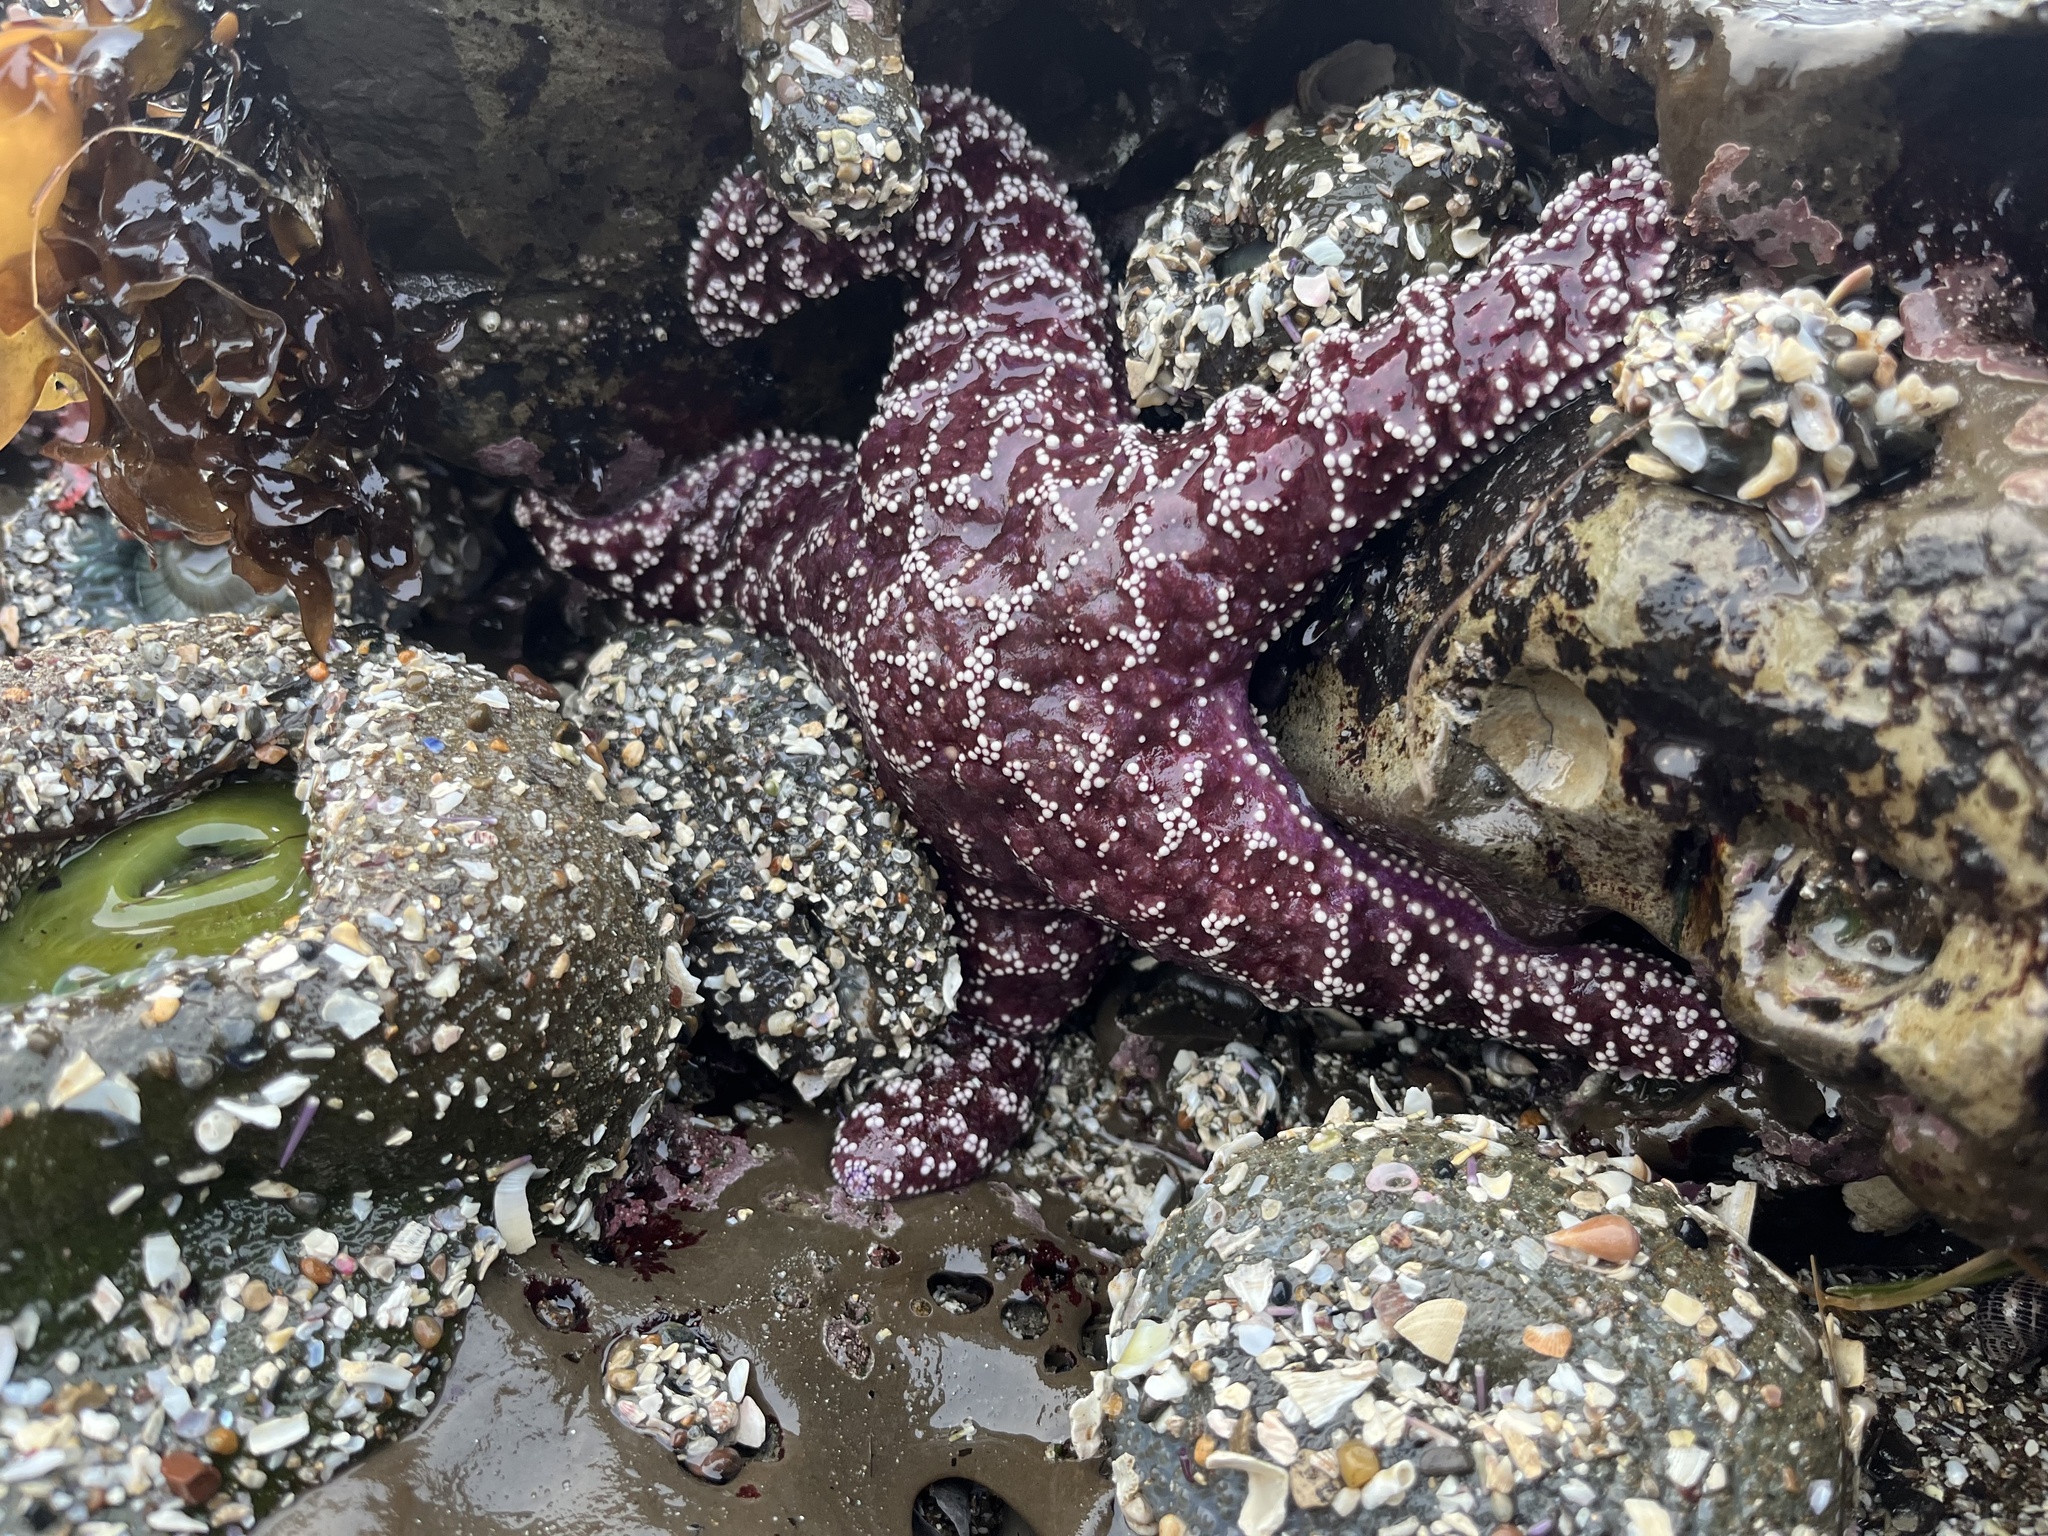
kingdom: Animalia
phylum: Echinodermata
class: Asteroidea
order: Forcipulatida
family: Asteriidae
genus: Pisaster
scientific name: Pisaster ochraceus
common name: Ochre stars
